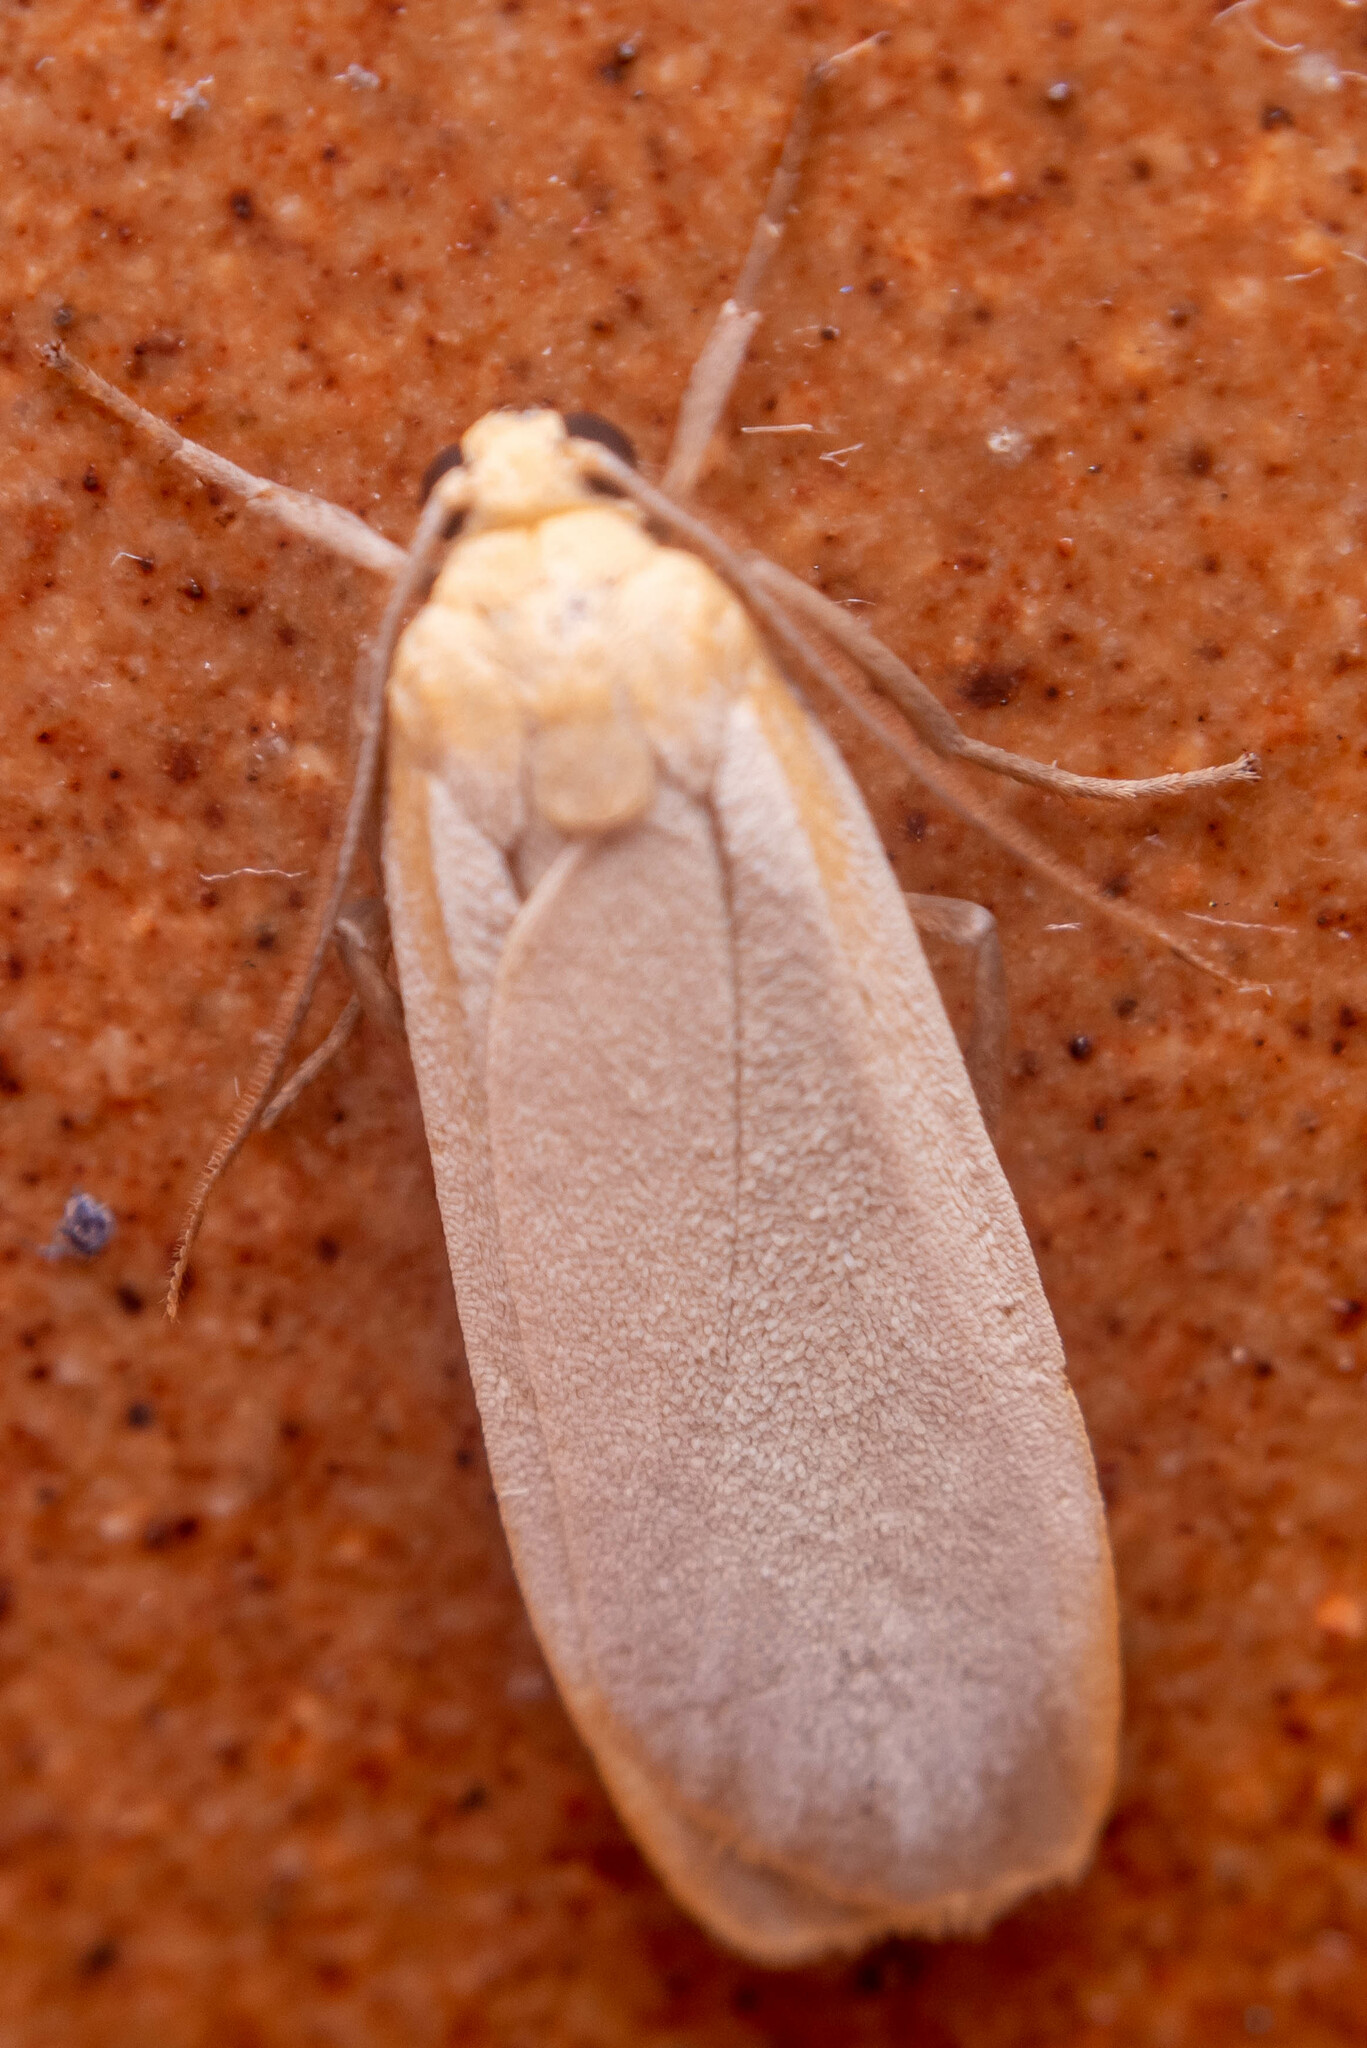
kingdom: Animalia
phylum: Arthropoda
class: Insecta
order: Lepidoptera
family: Erebidae
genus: Katha
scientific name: Katha depressa
